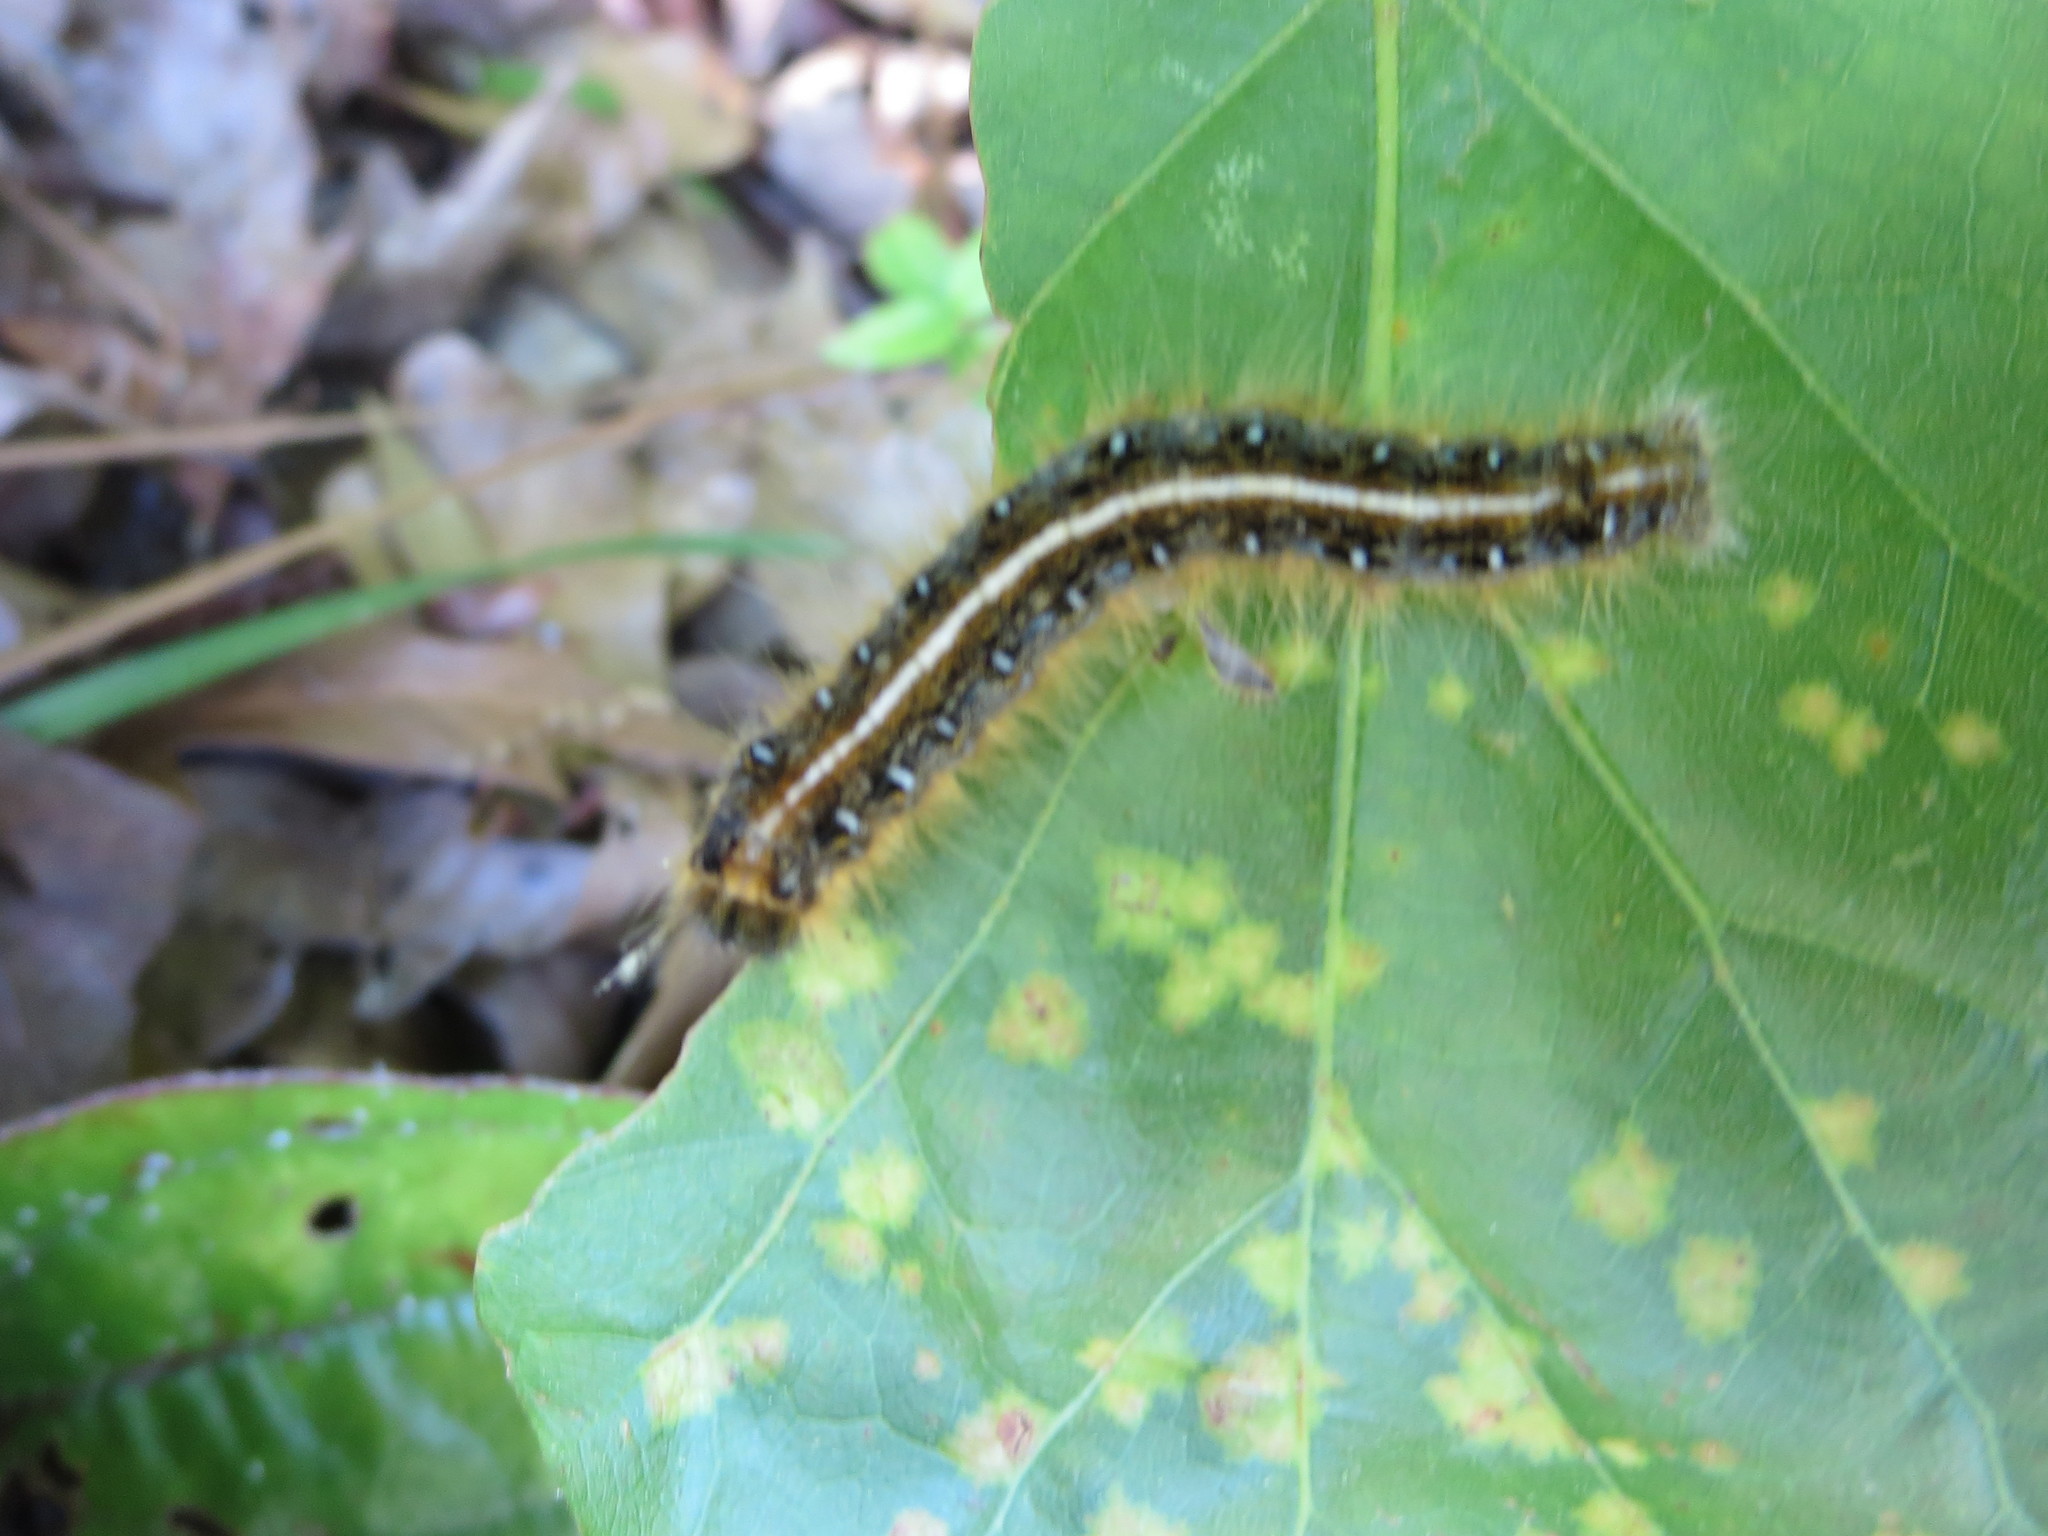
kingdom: Animalia
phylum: Arthropoda
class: Insecta
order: Lepidoptera
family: Lasiocampidae
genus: Malacosoma
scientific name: Malacosoma americana
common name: Eastern tent caterpillar moth
